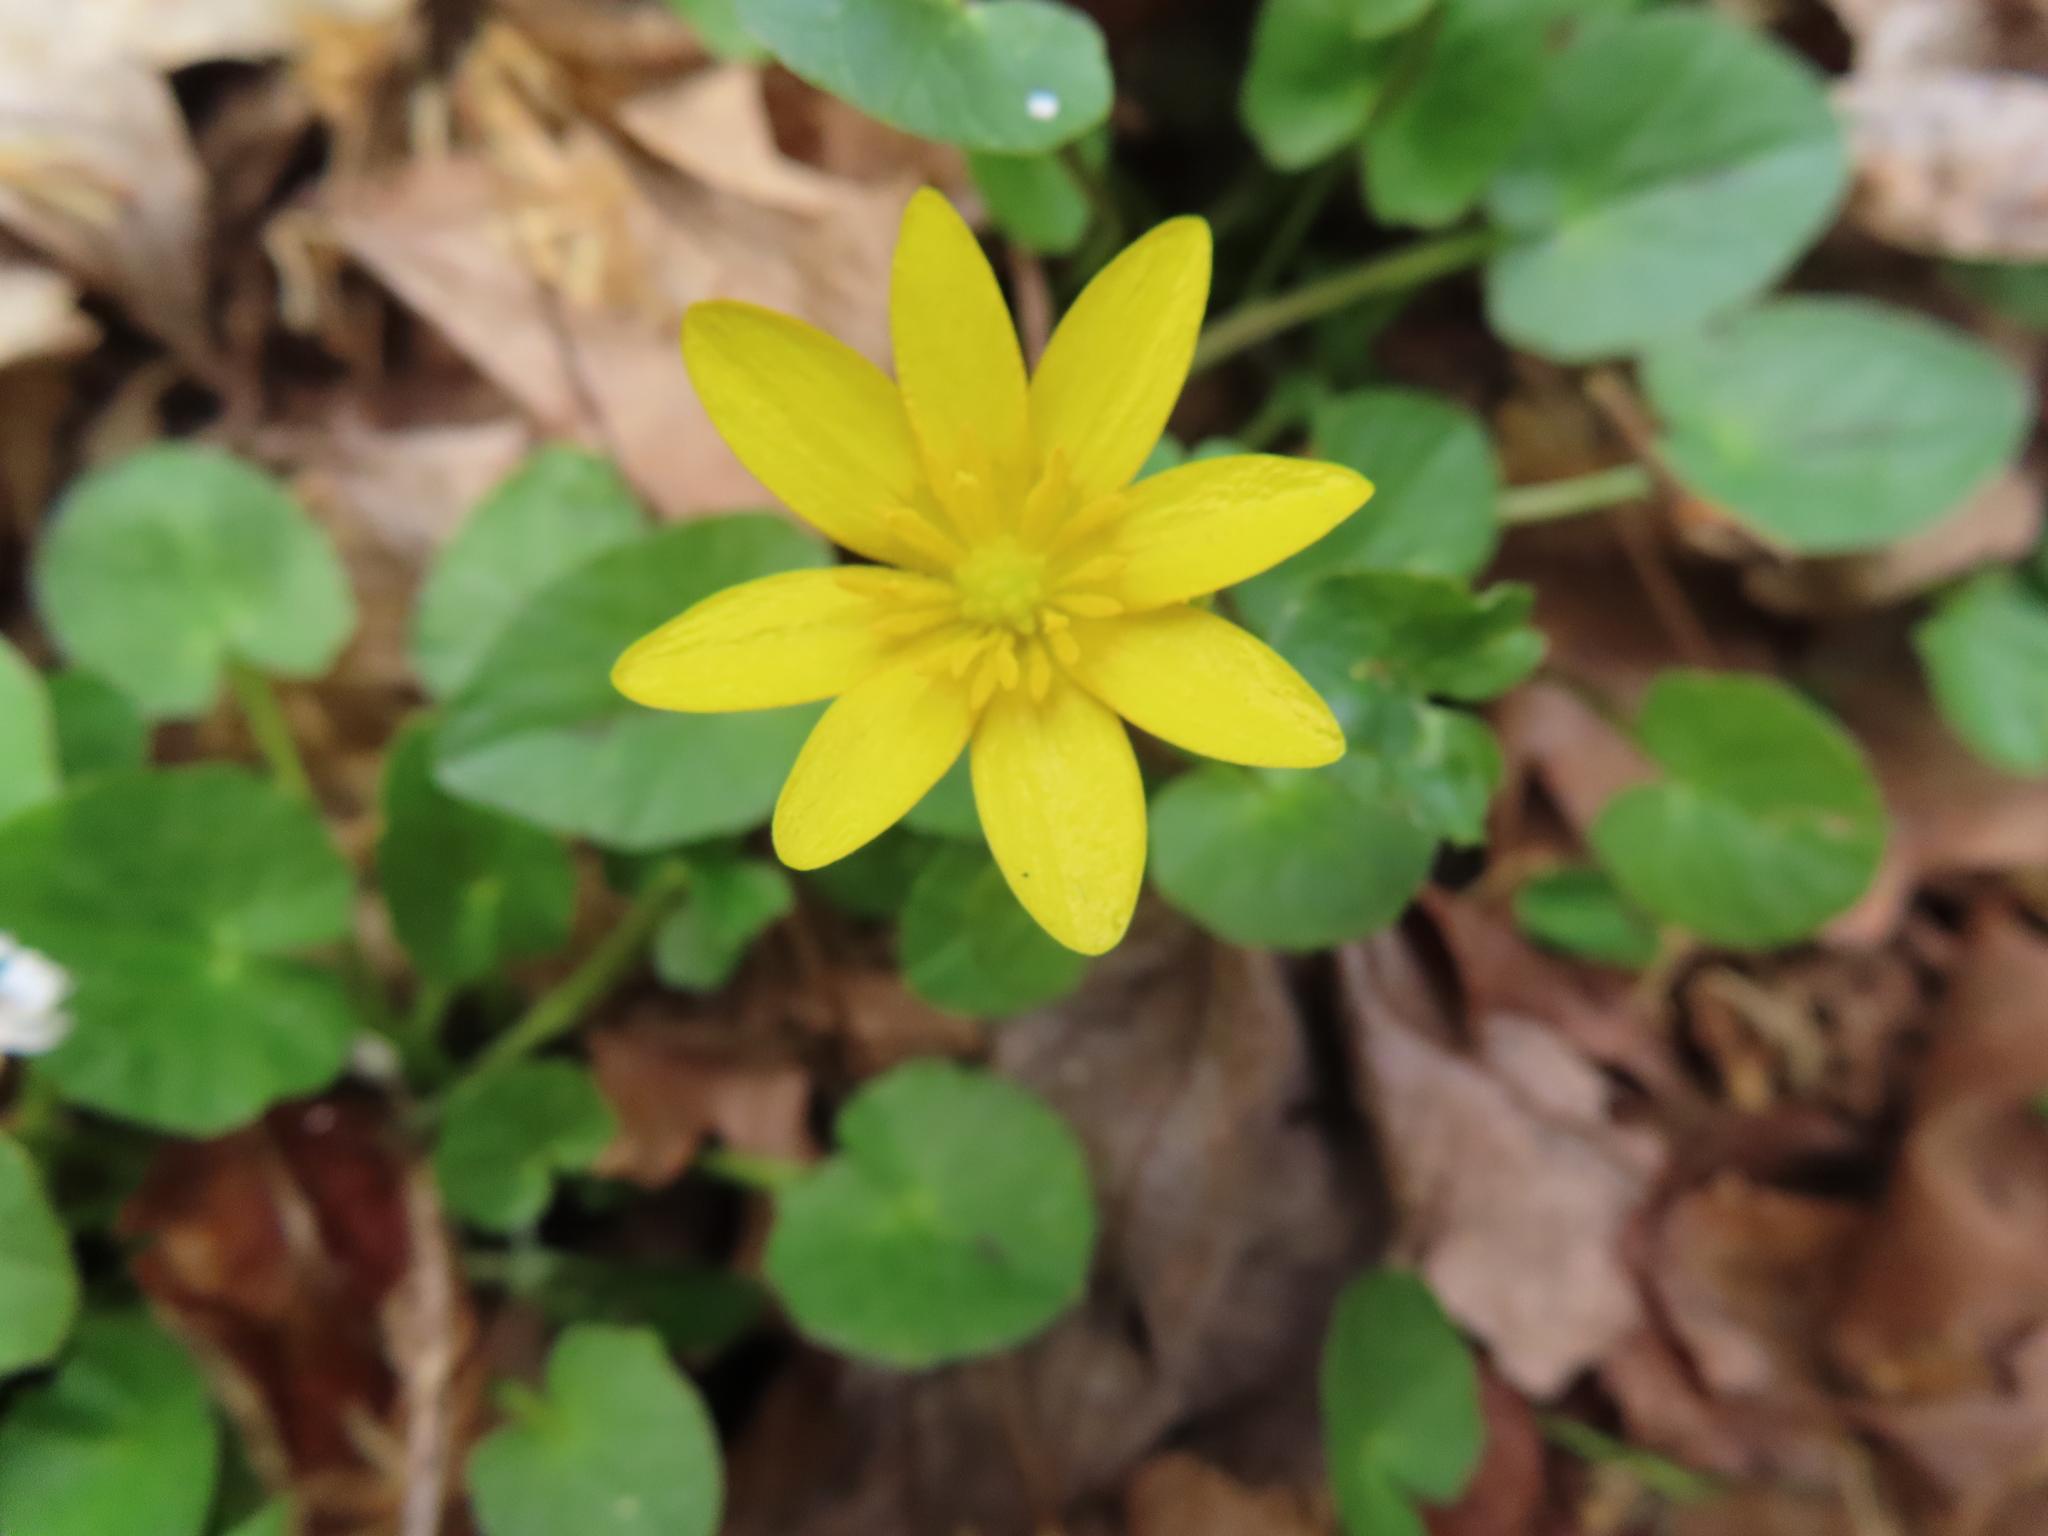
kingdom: Plantae
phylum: Tracheophyta
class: Magnoliopsida
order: Ranunculales
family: Ranunculaceae
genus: Ficaria
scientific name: Ficaria verna
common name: Lesser celandine
